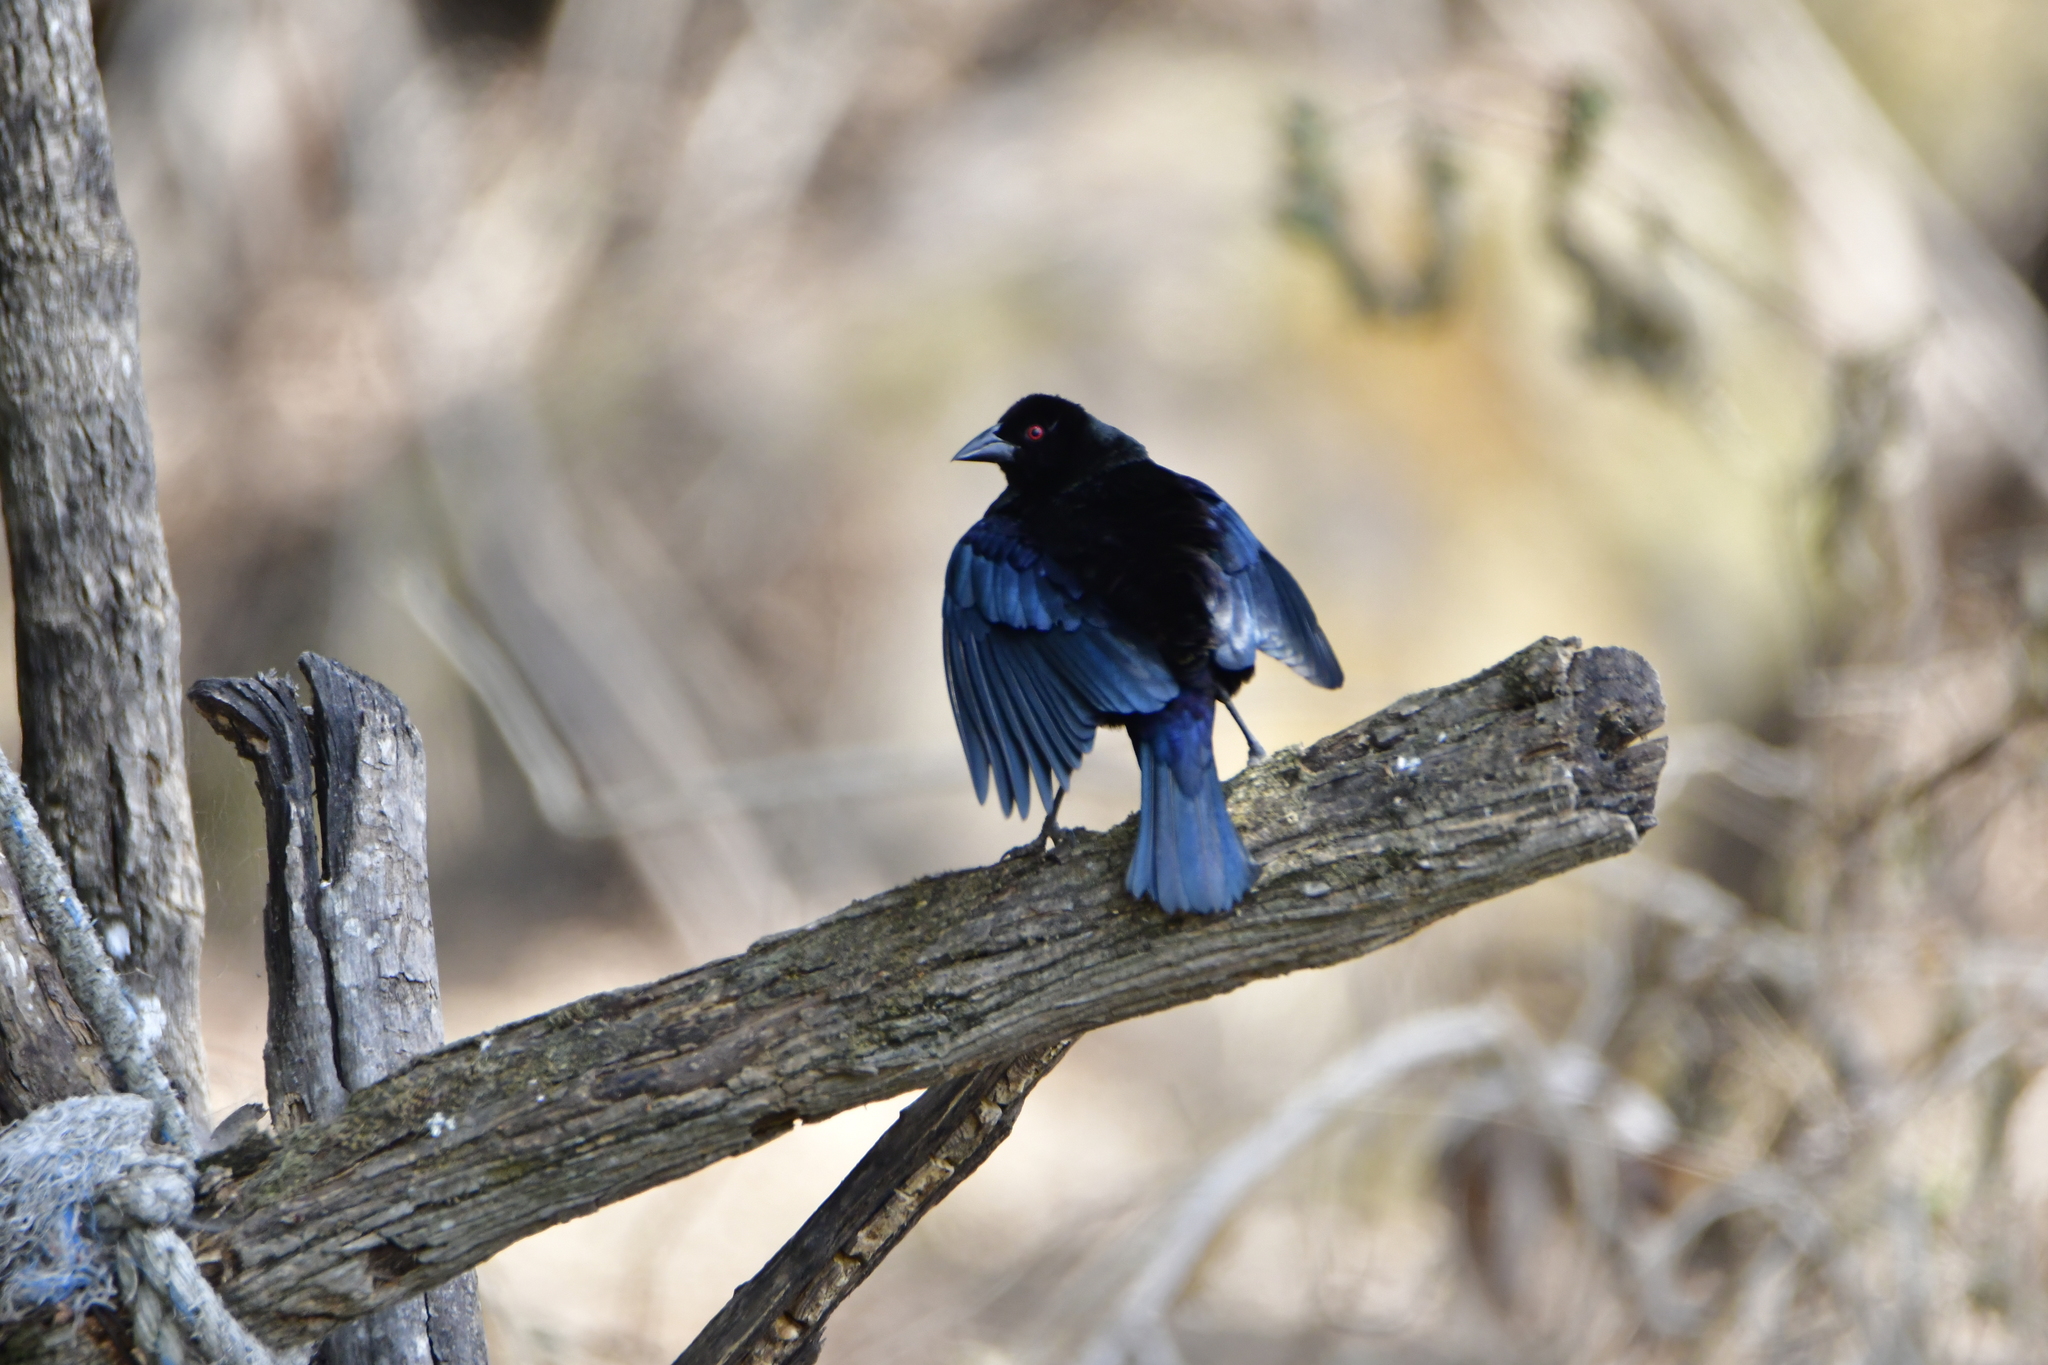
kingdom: Animalia
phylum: Chordata
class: Aves
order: Passeriformes
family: Icteridae
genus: Molothrus
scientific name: Molothrus aeneus
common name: Bronzed cowbird
